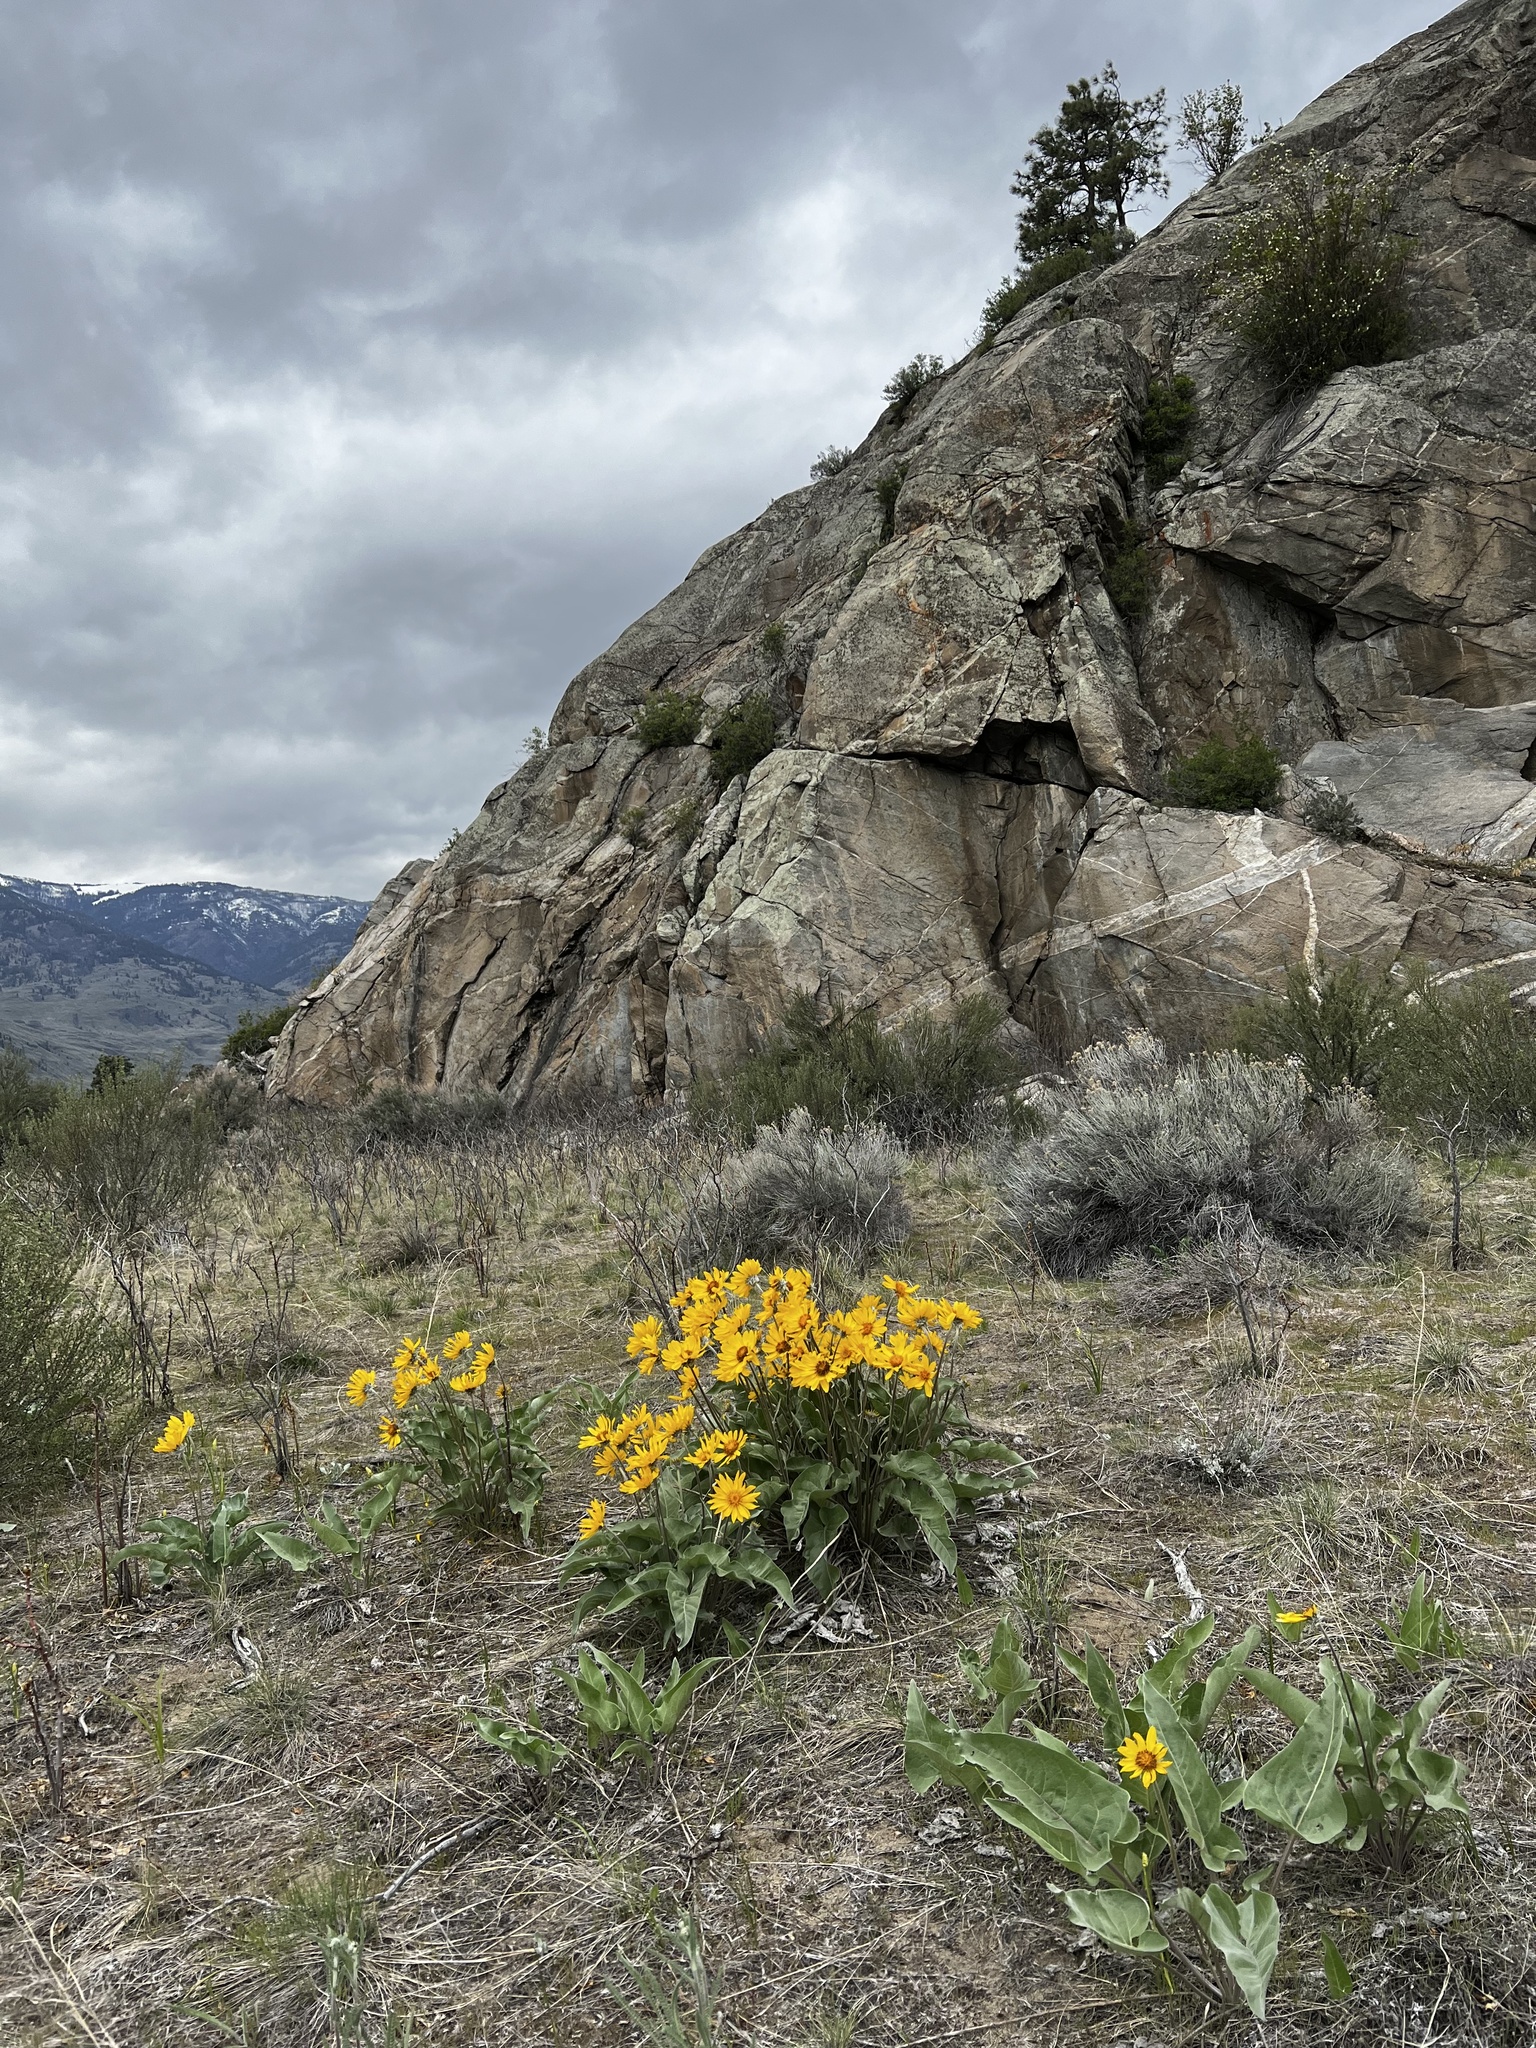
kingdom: Plantae
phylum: Tracheophyta
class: Magnoliopsida
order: Asterales
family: Asteraceae
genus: Wyethia
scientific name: Wyethia sagittata
